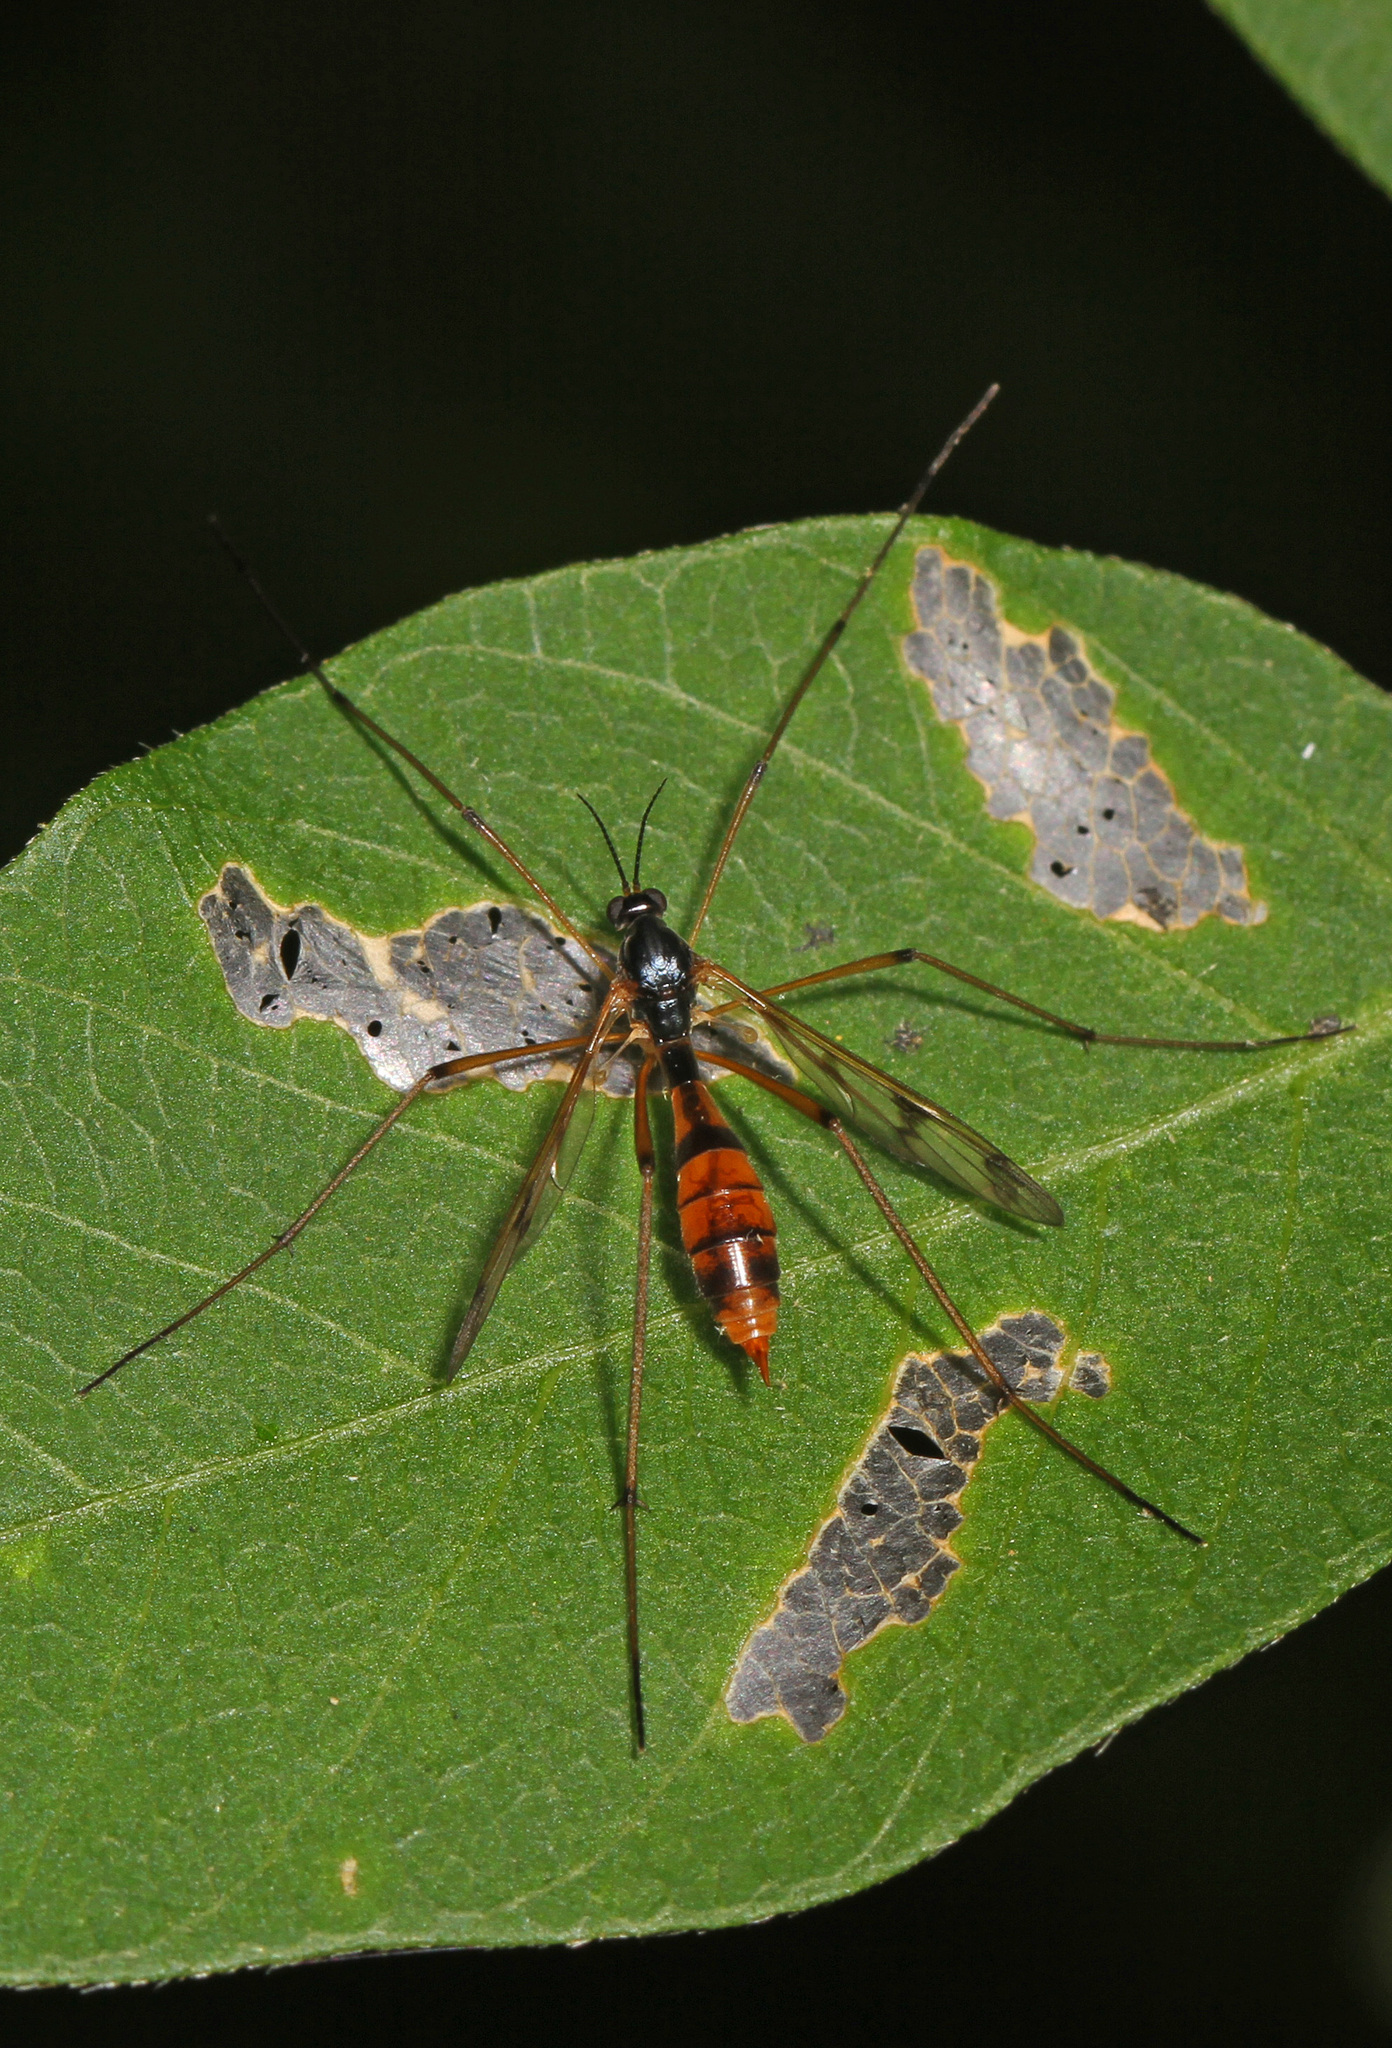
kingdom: Animalia
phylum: Arthropoda
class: Insecta
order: Diptera
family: Ptychopteridae
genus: Ptychoptera
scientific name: Ptychoptera quadrifasciata
